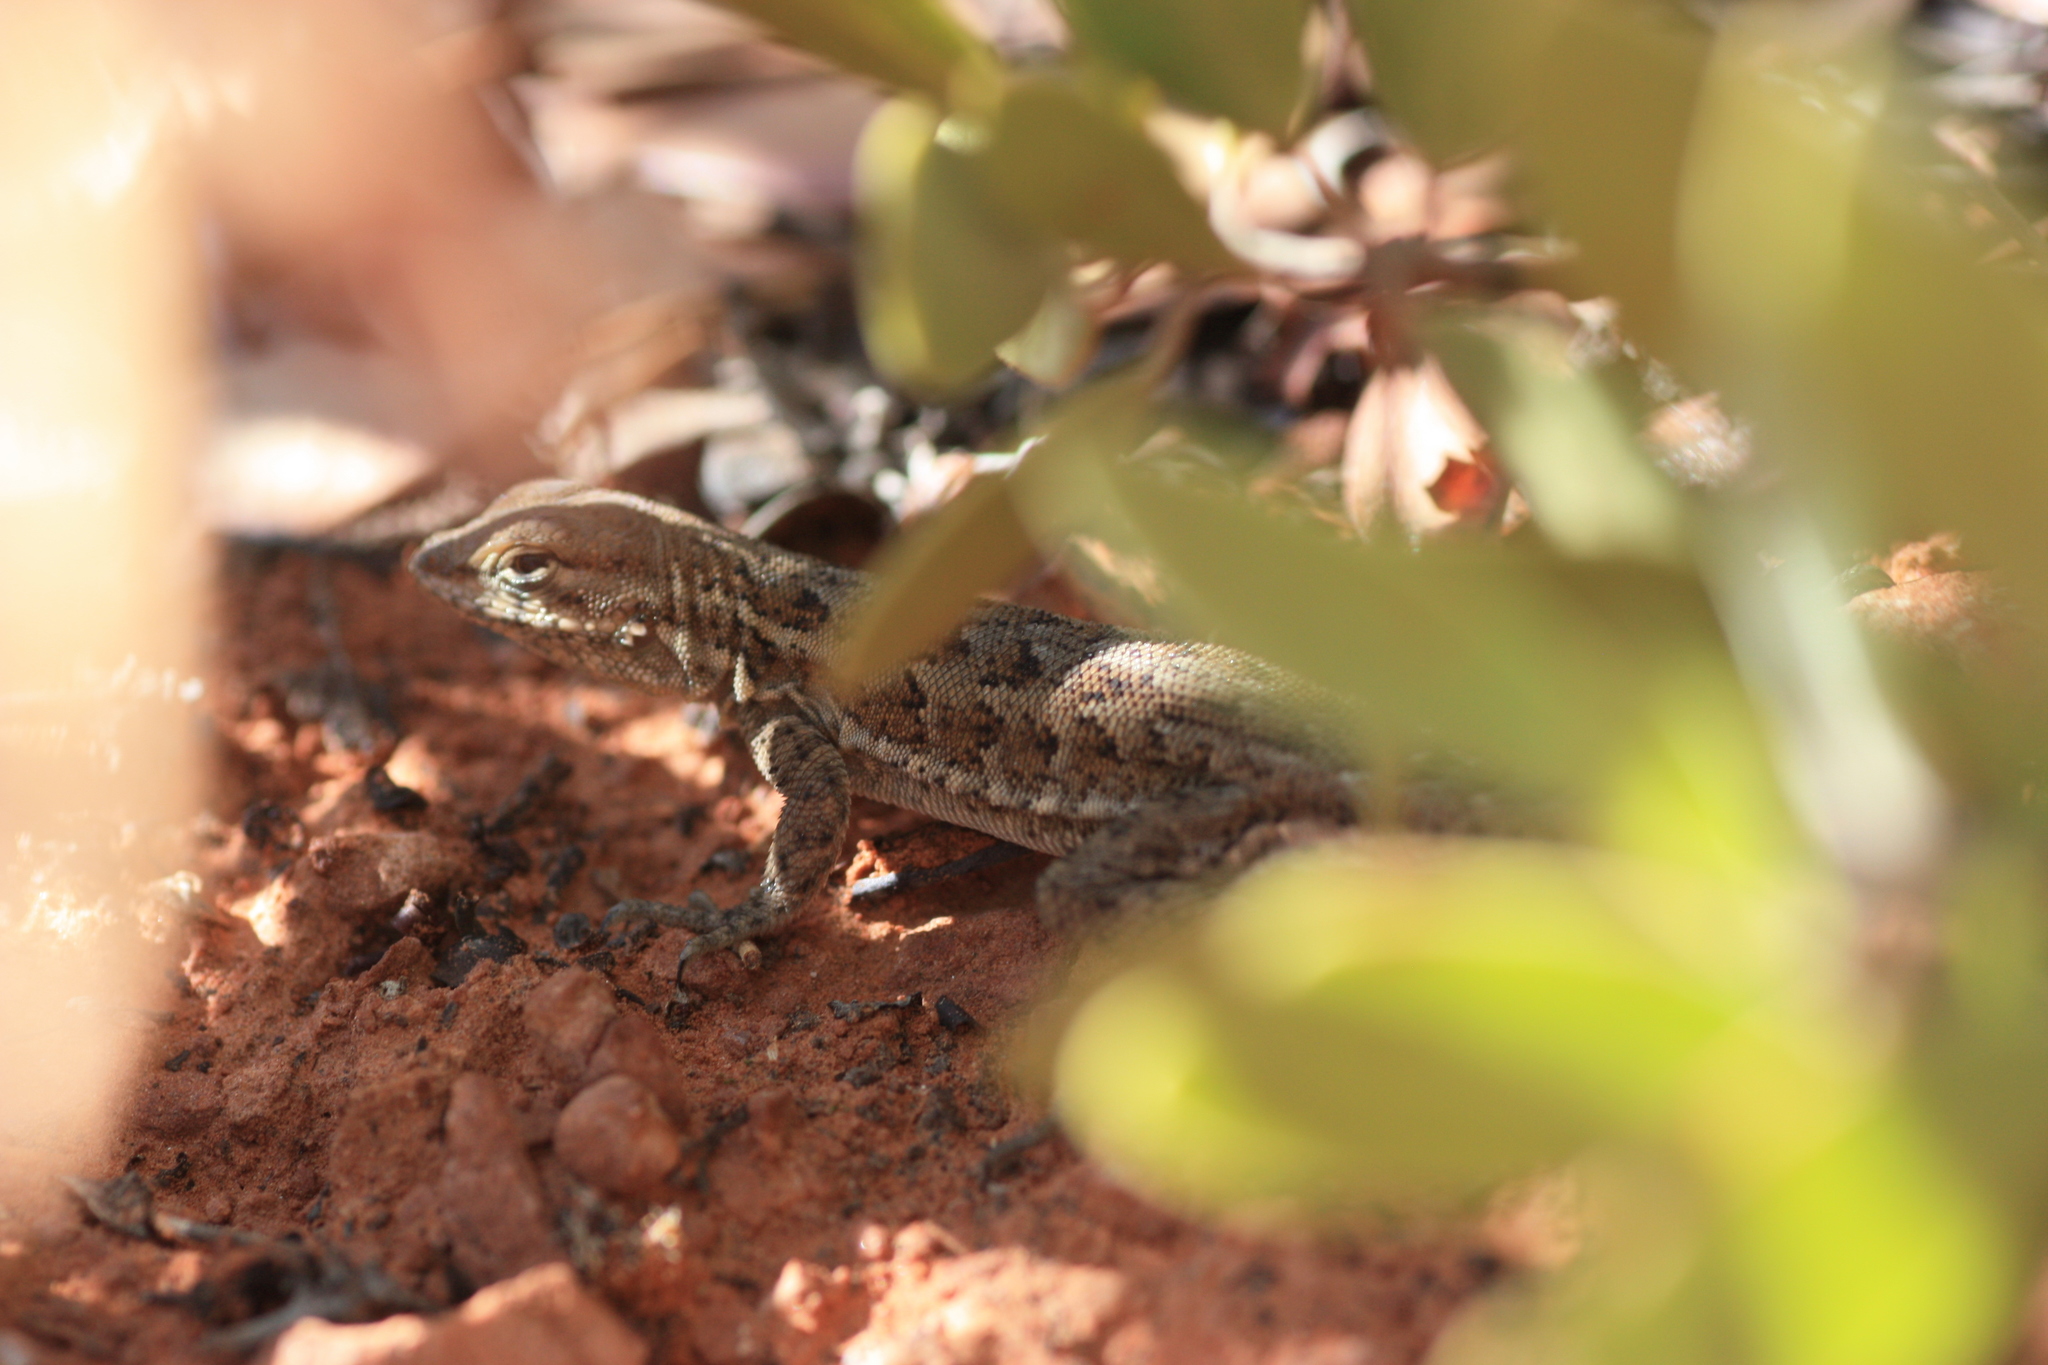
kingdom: Animalia
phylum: Chordata
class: Squamata
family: Phrynosomatidae
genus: Uta
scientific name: Uta stansburiana
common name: Side-blotched lizard
